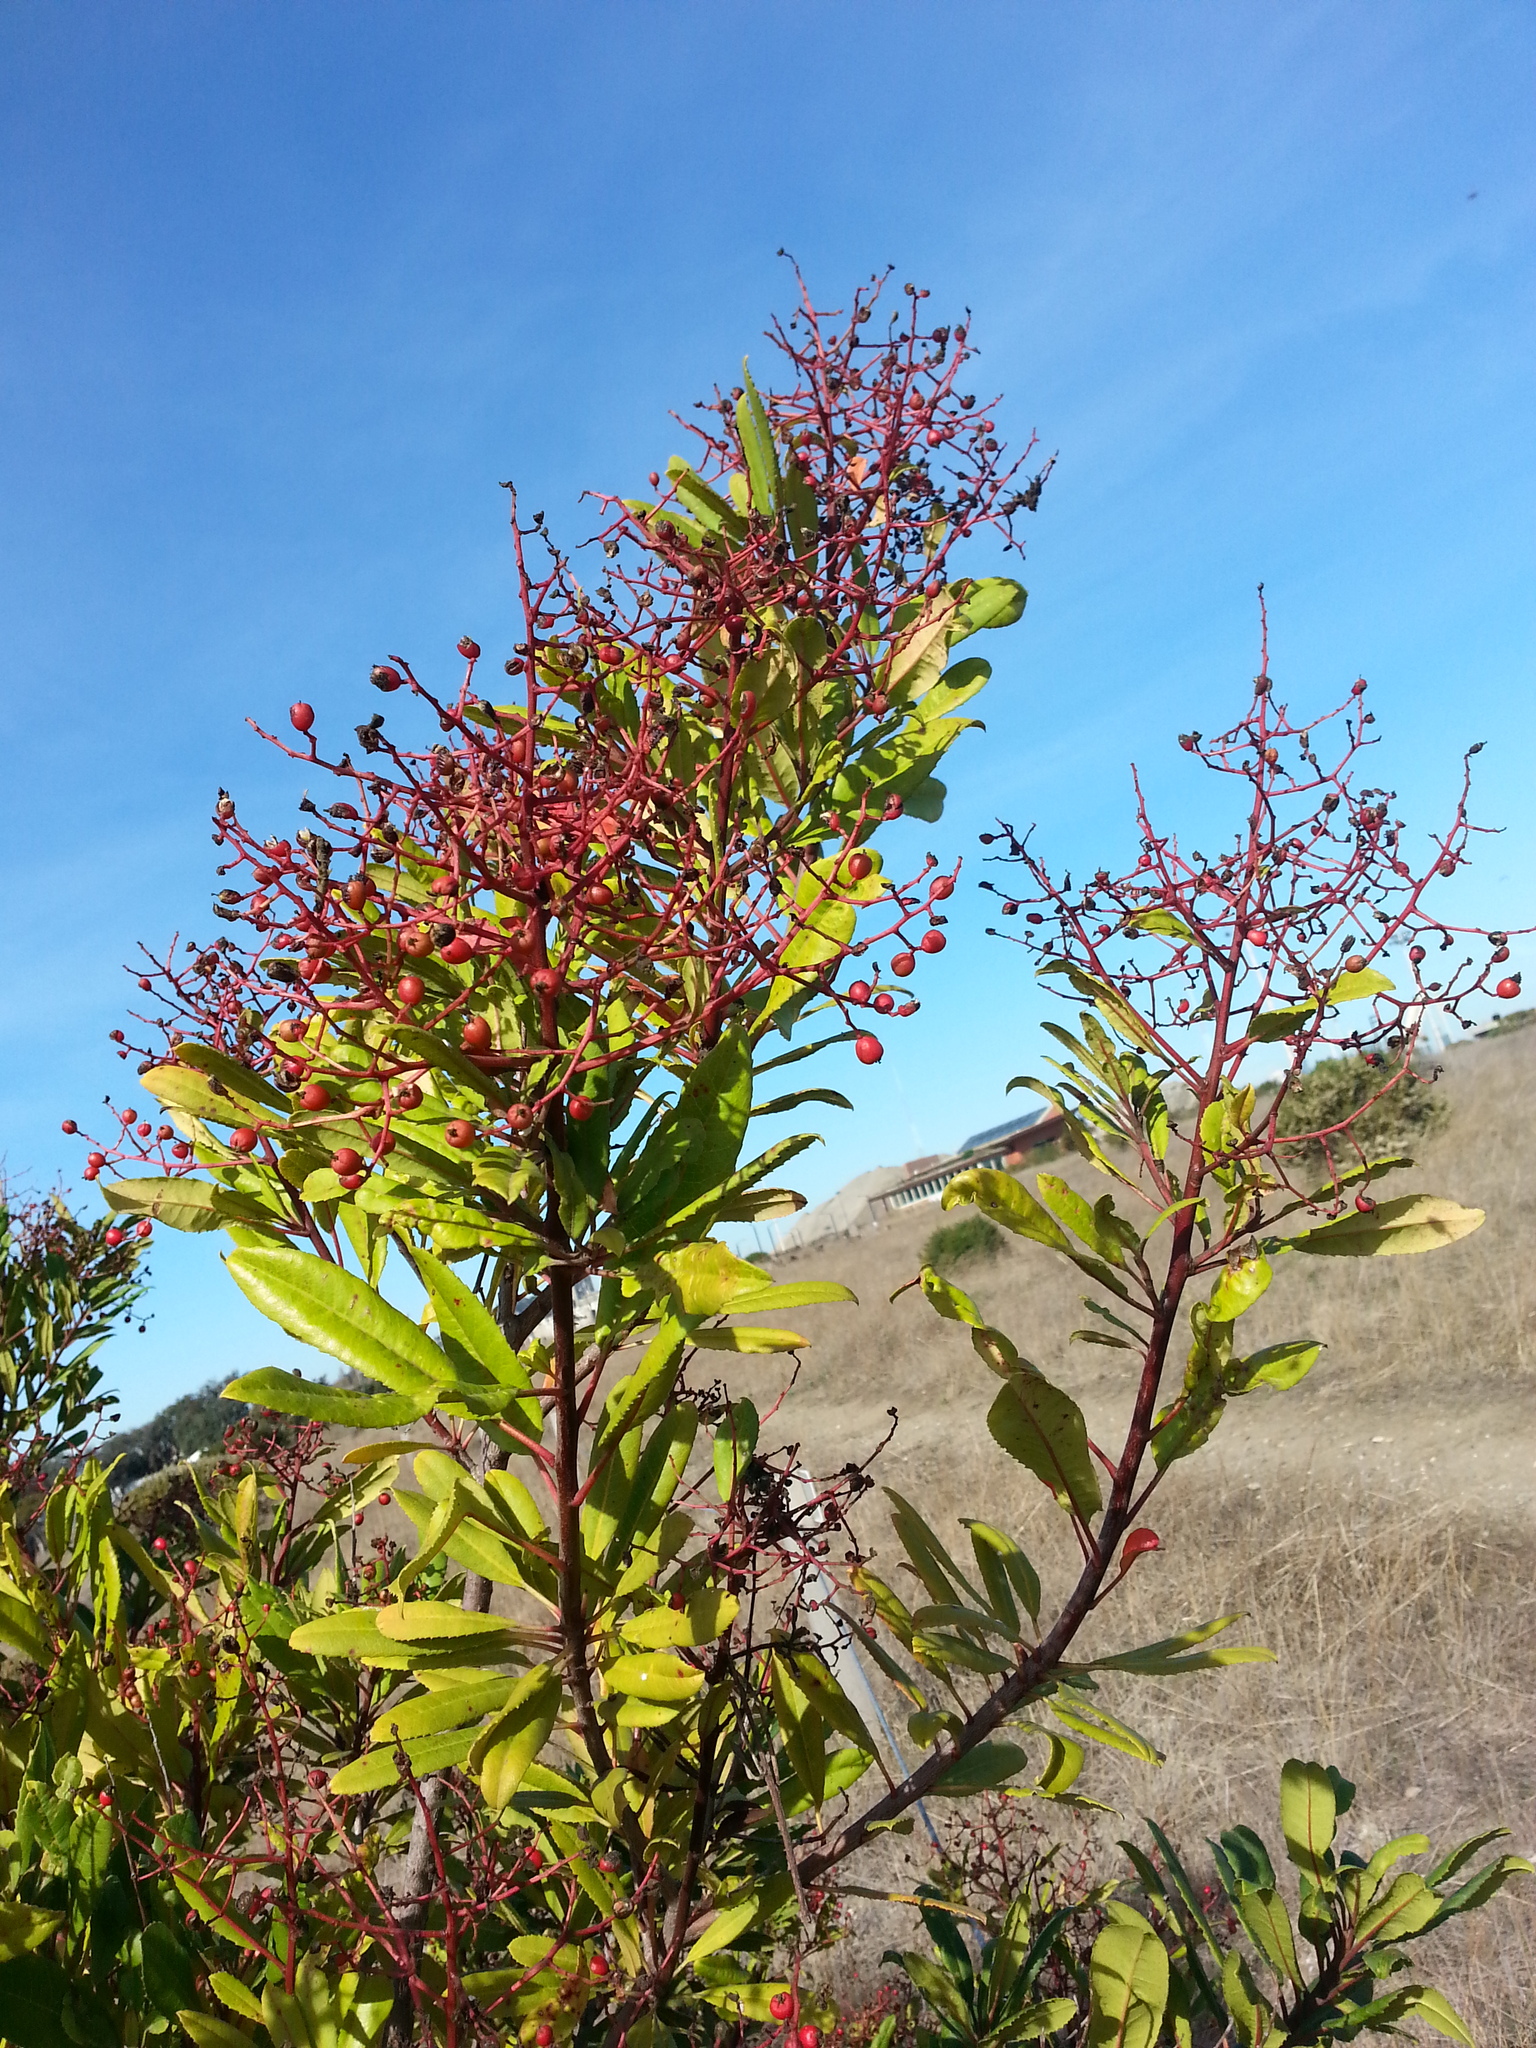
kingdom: Plantae
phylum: Tracheophyta
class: Magnoliopsida
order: Rosales
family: Rosaceae
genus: Heteromeles
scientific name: Heteromeles arbutifolia
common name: California-holly
